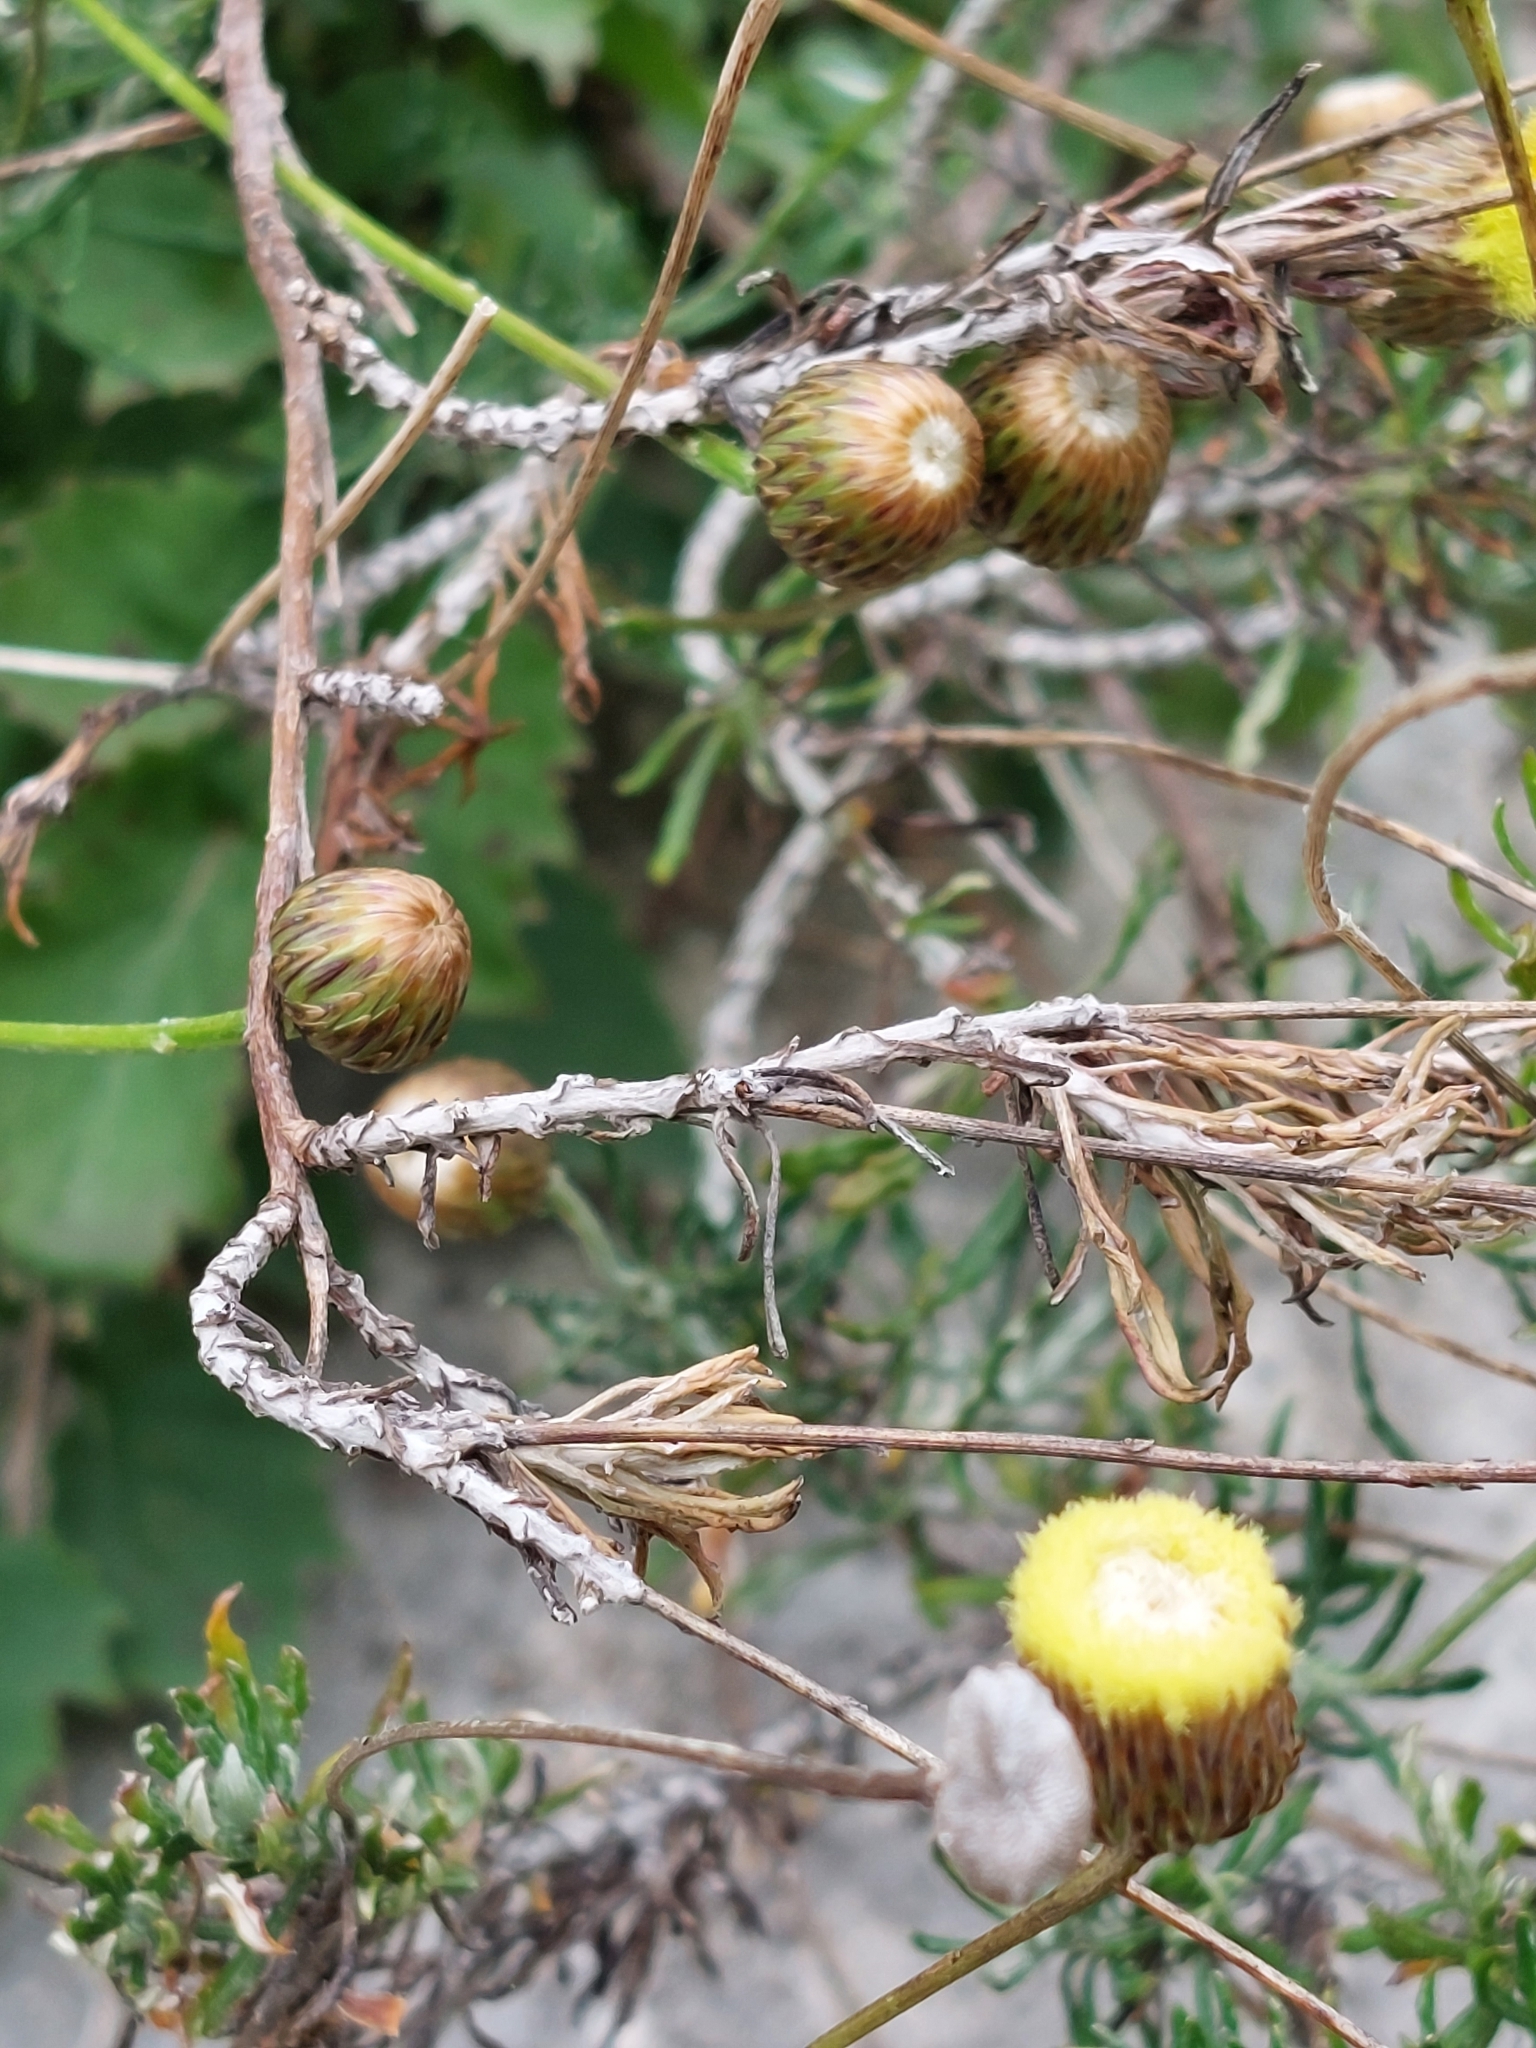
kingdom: Plantae
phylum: Tracheophyta
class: Magnoliopsida
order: Asterales
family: Asteraceae
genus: Phagnalon
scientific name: Phagnalon graecum
